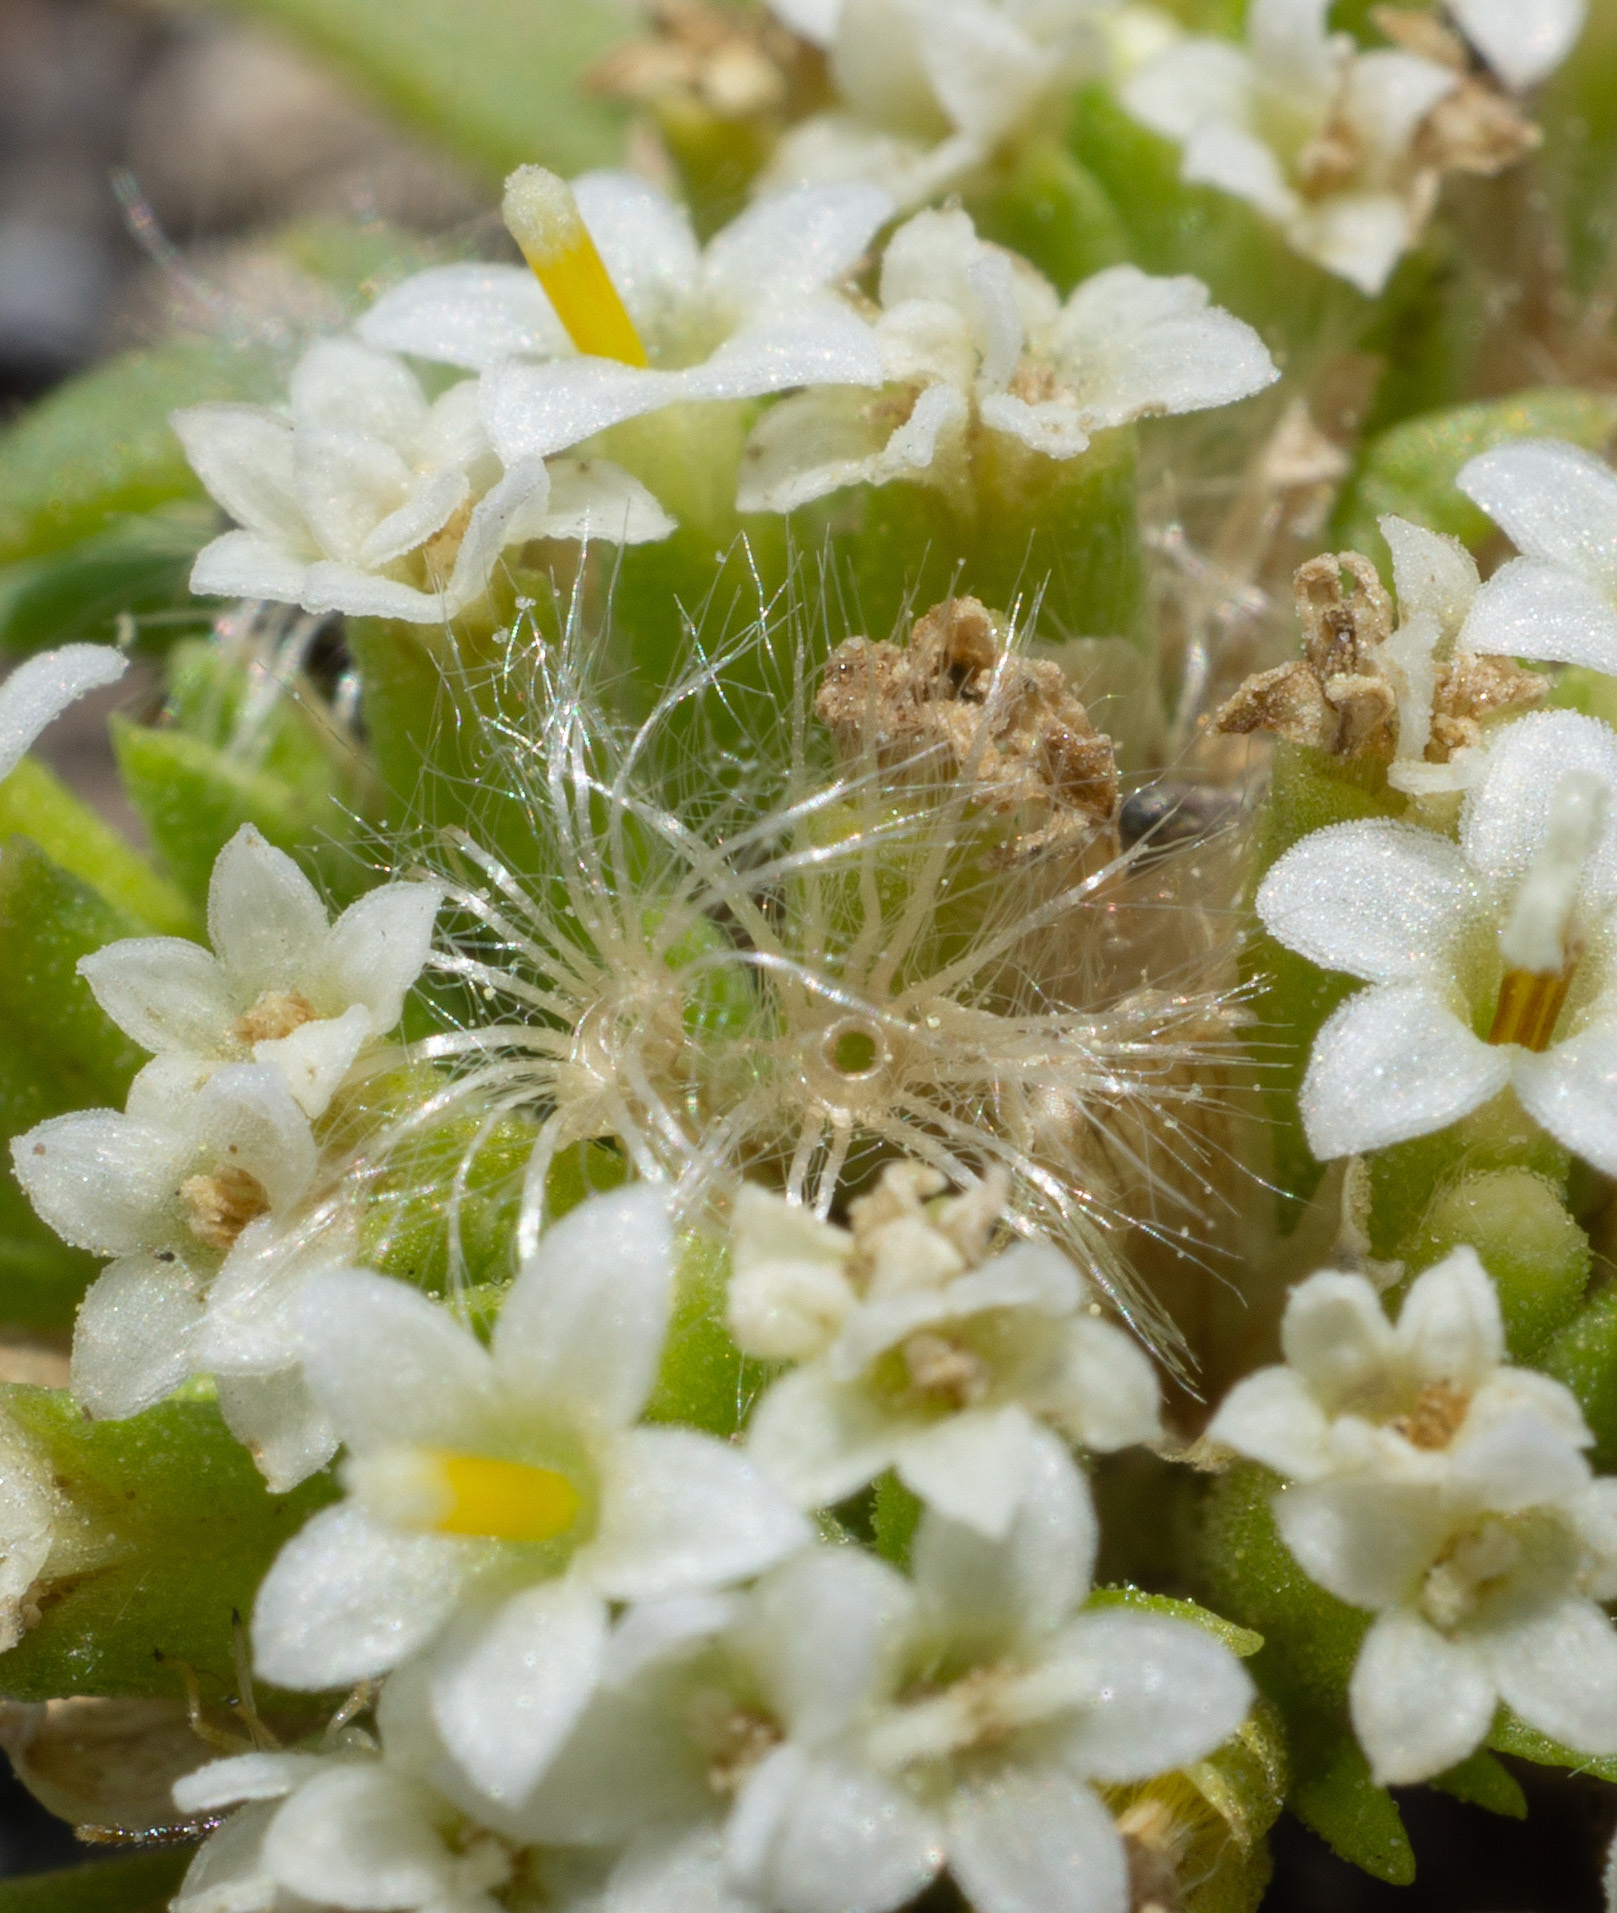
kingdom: Plantae
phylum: Tracheophyta
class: Magnoliopsida
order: Asterales
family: Asteraceae
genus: Dimeresia
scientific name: Dimeresia howellii
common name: Doublet
